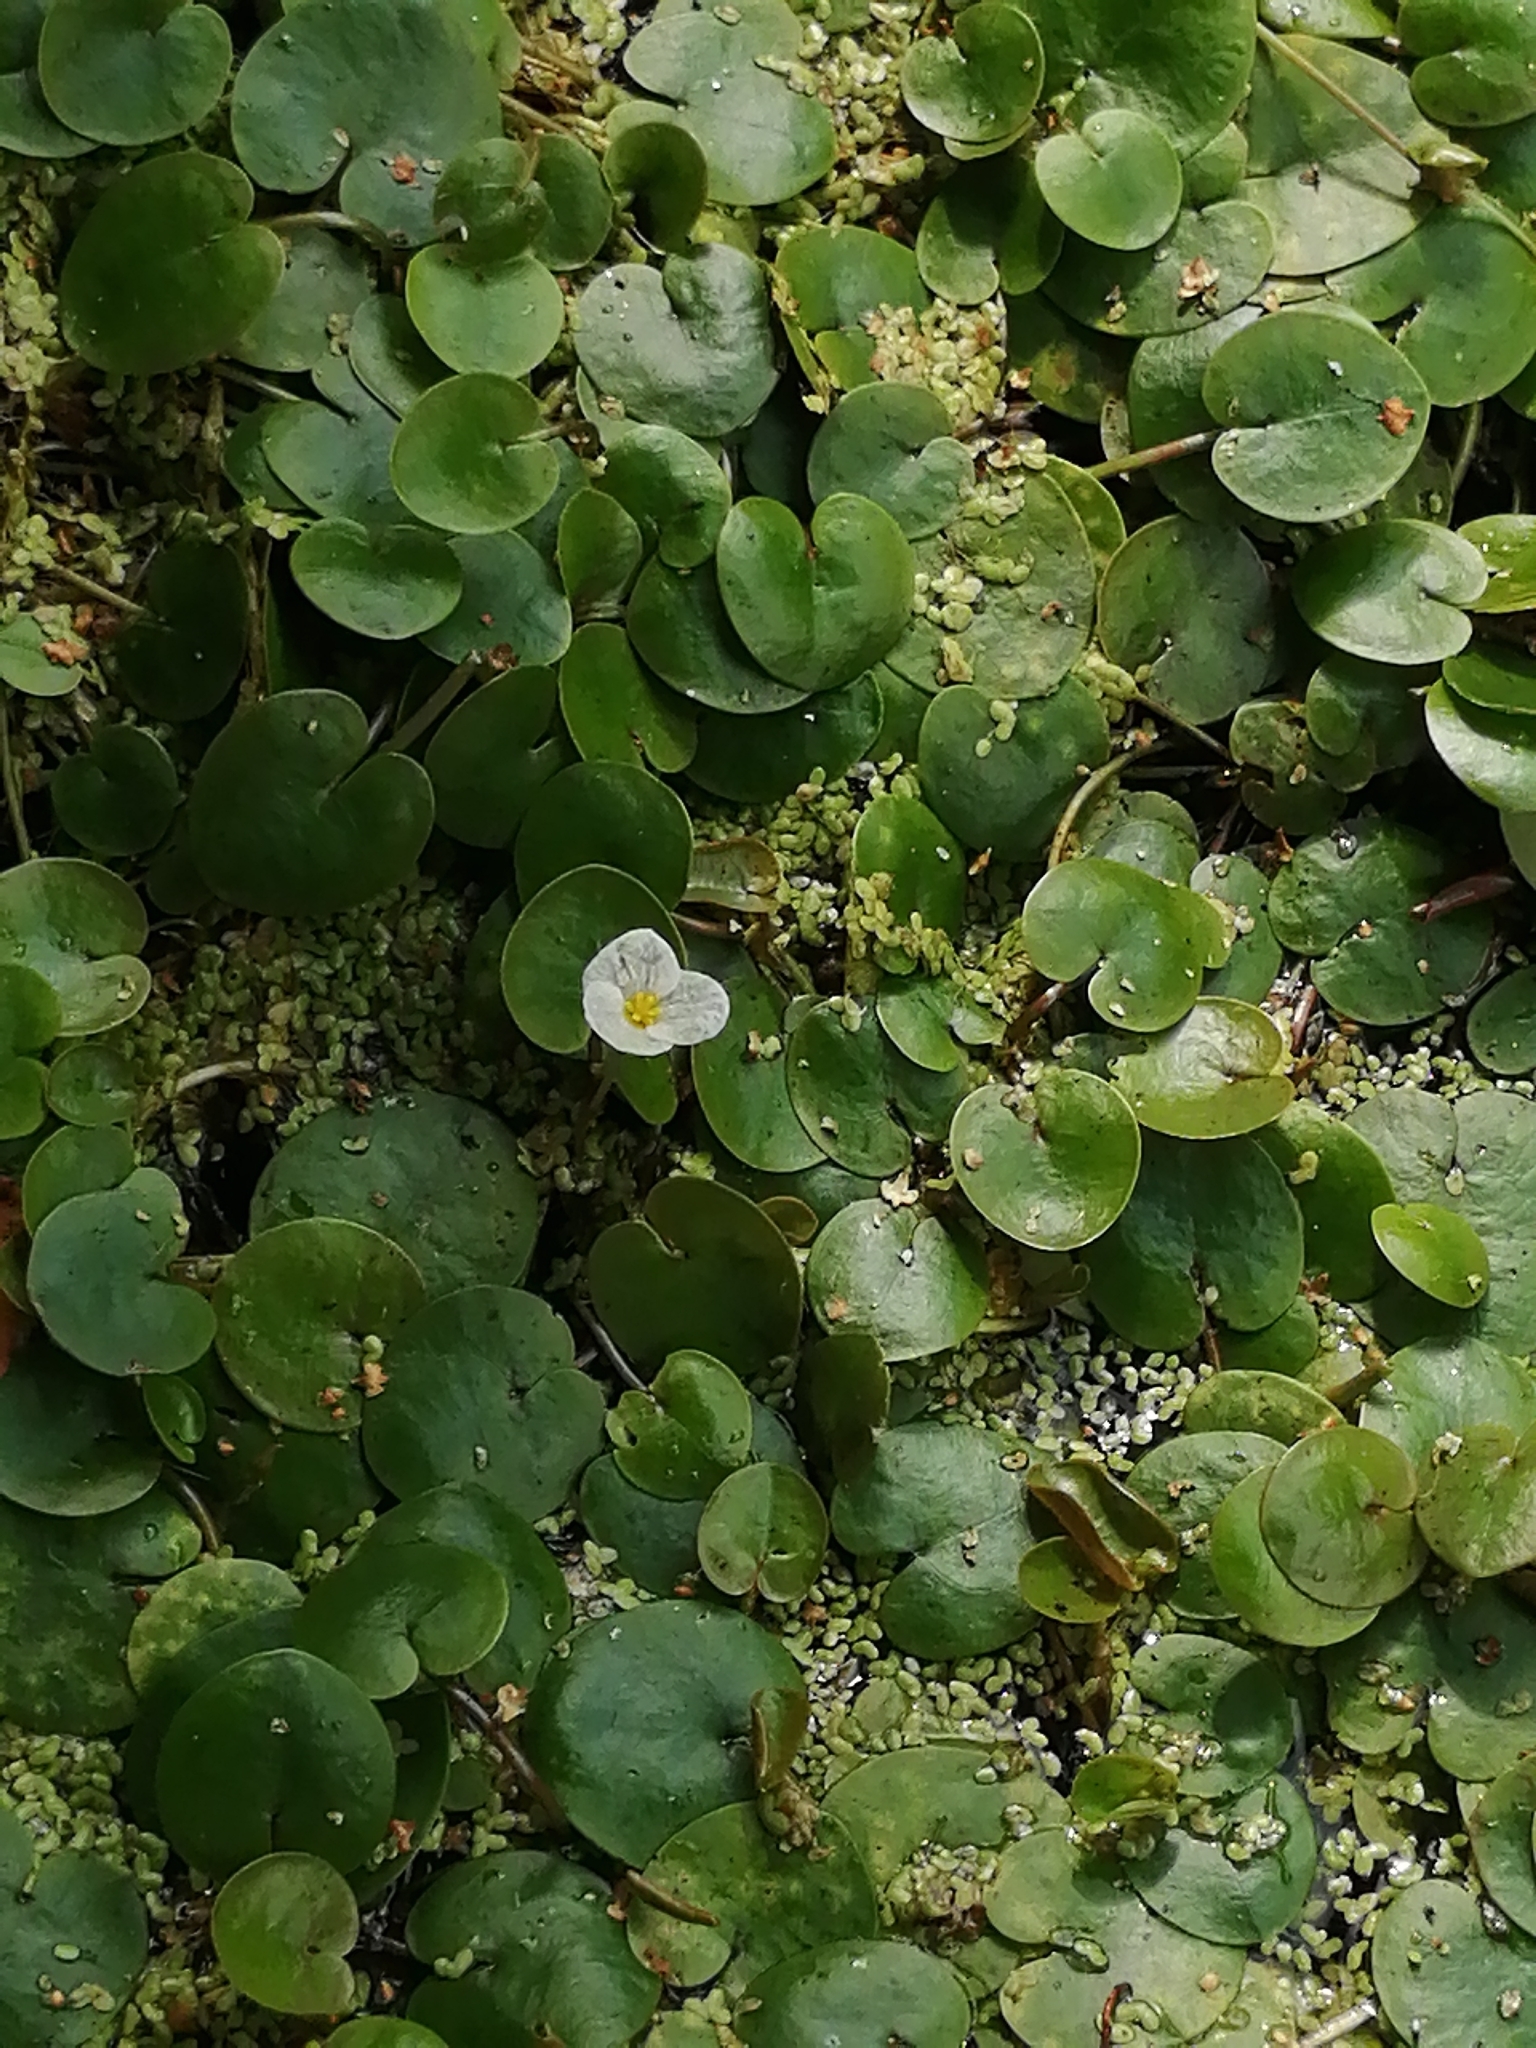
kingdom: Plantae
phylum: Tracheophyta
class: Liliopsida
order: Alismatales
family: Hydrocharitaceae
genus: Hydrocharis
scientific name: Hydrocharis morsus-ranae
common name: Frogbit
